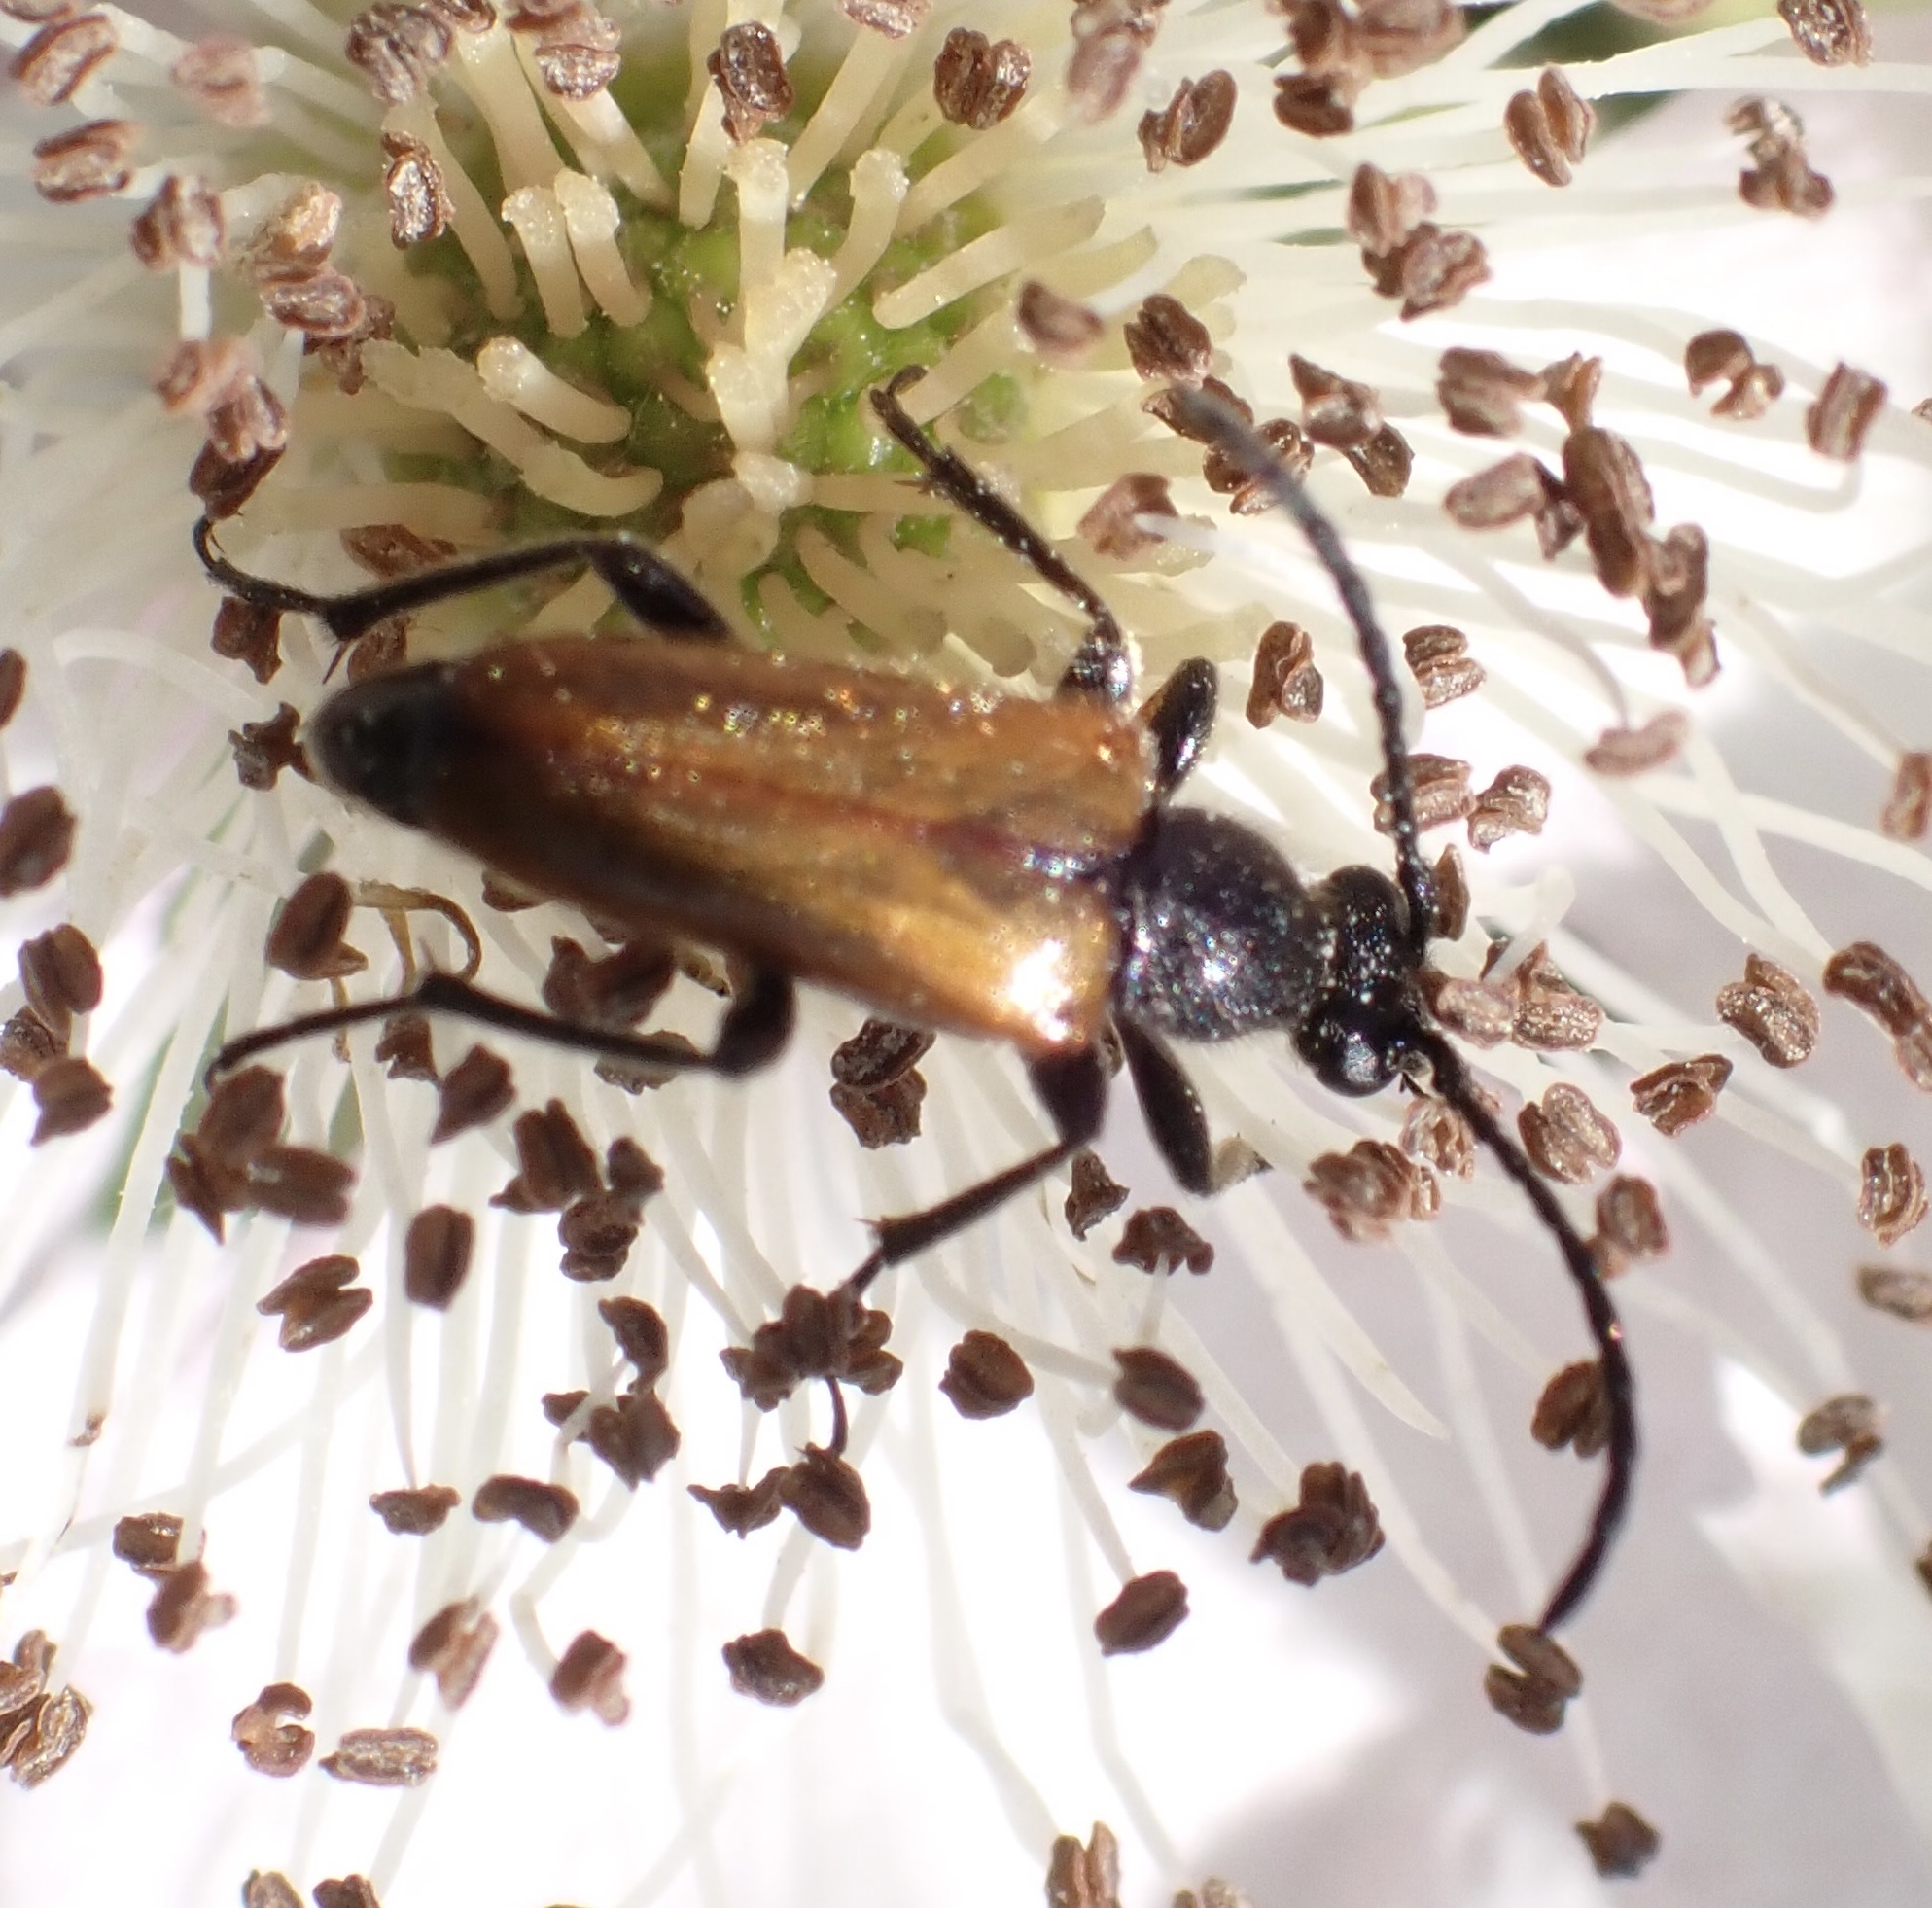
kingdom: Animalia
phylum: Arthropoda
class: Insecta
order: Coleoptera
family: Cerambycidae
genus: Pseudovadonia
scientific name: Pseudovadonia livida
